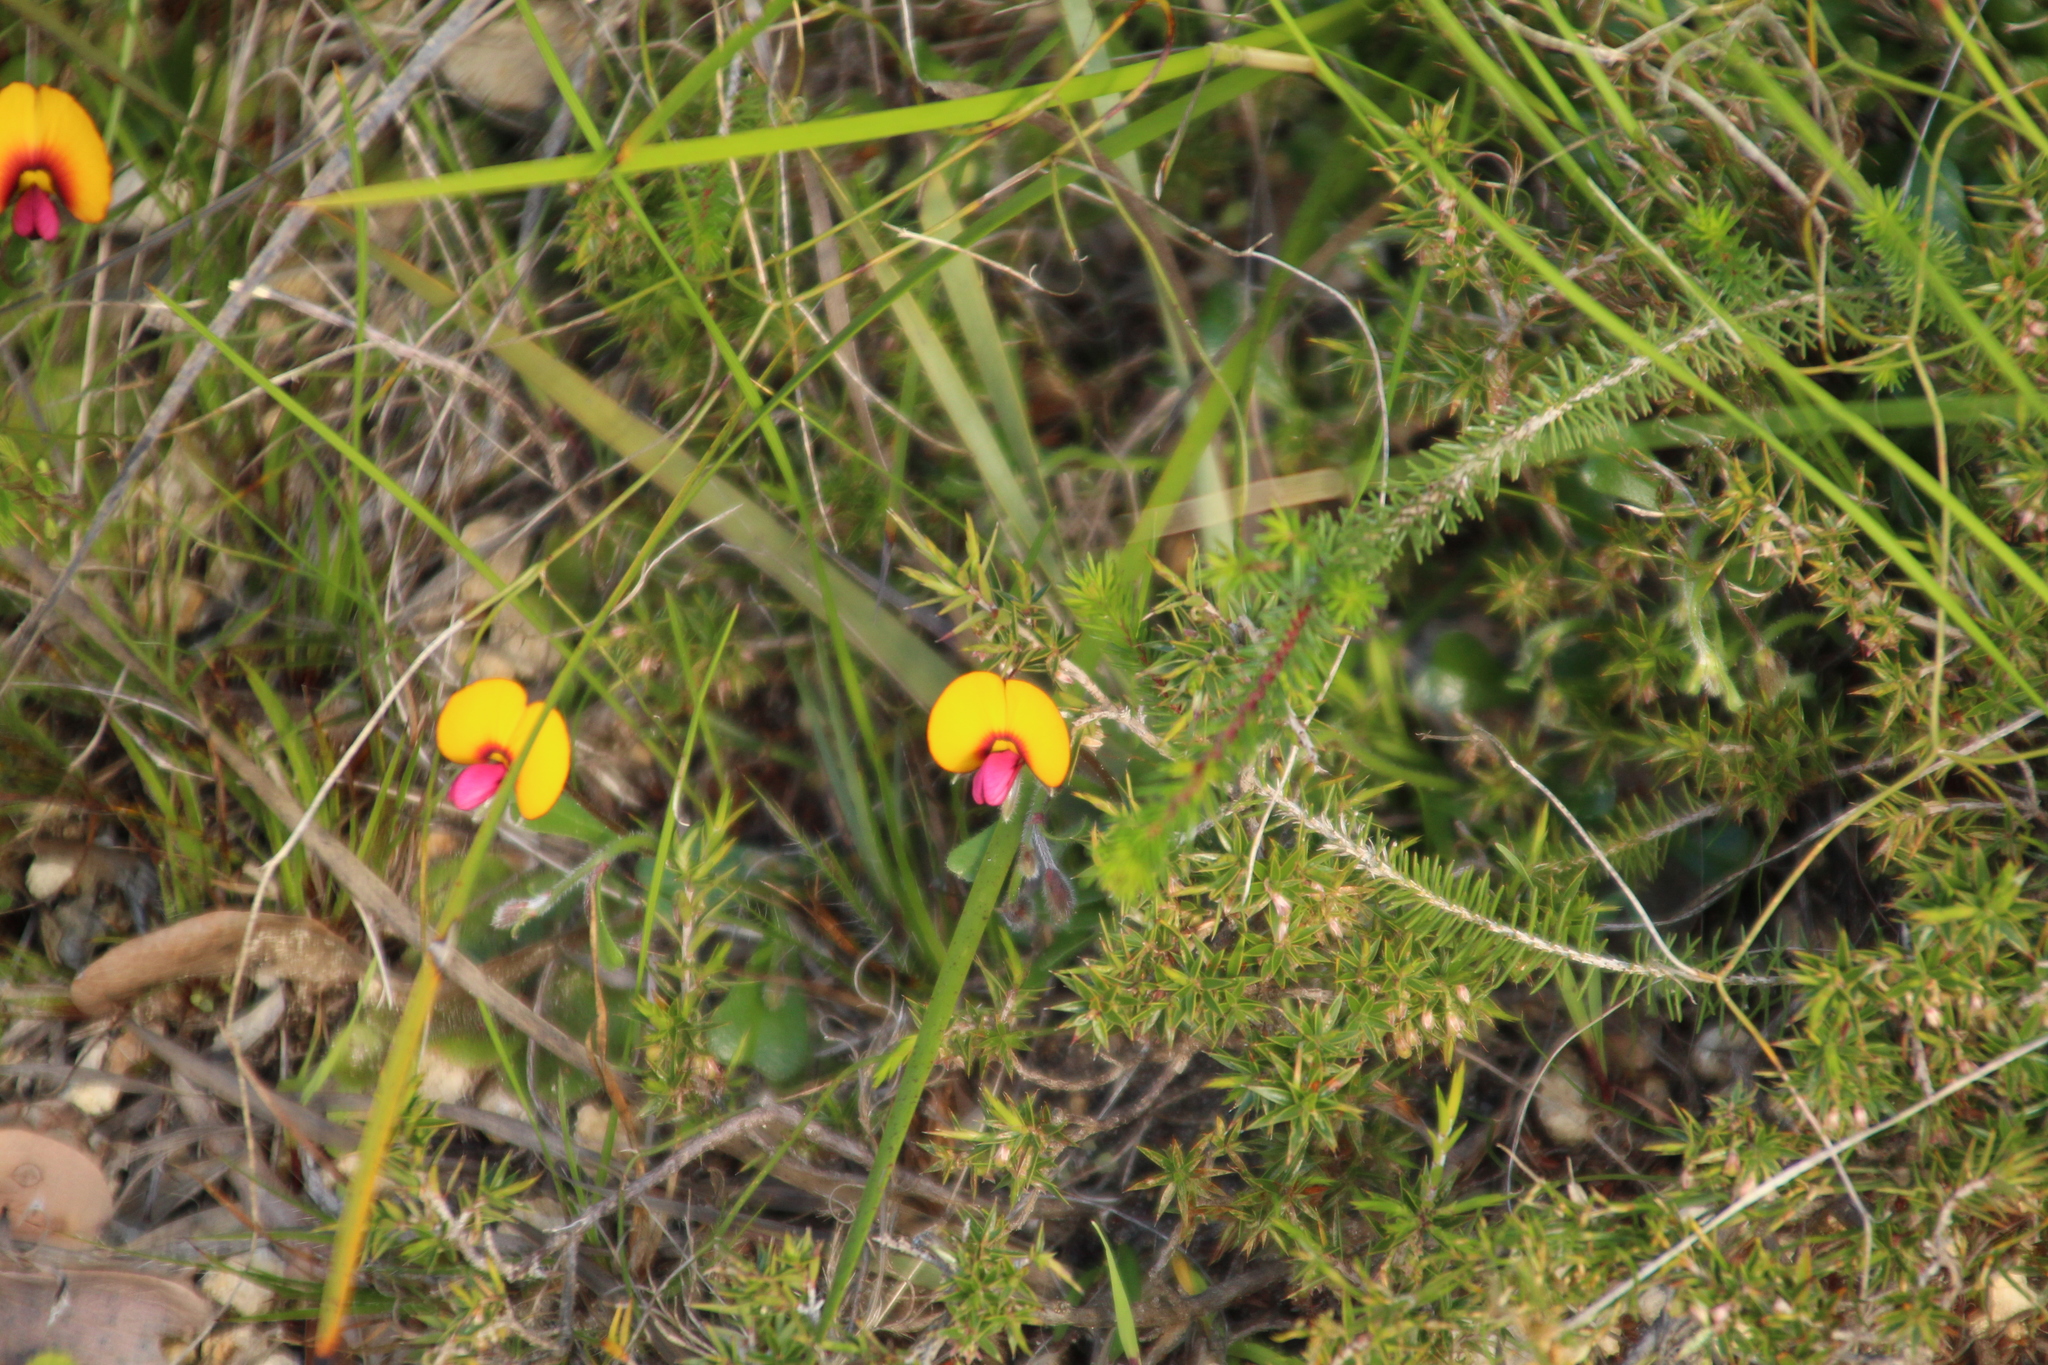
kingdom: Plantae
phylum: Tracheophyta
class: Magnoliopsida
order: Fabales
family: Fabaceae
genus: Isotropis
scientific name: Isotropis cuneifolia
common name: Granny bonnets
